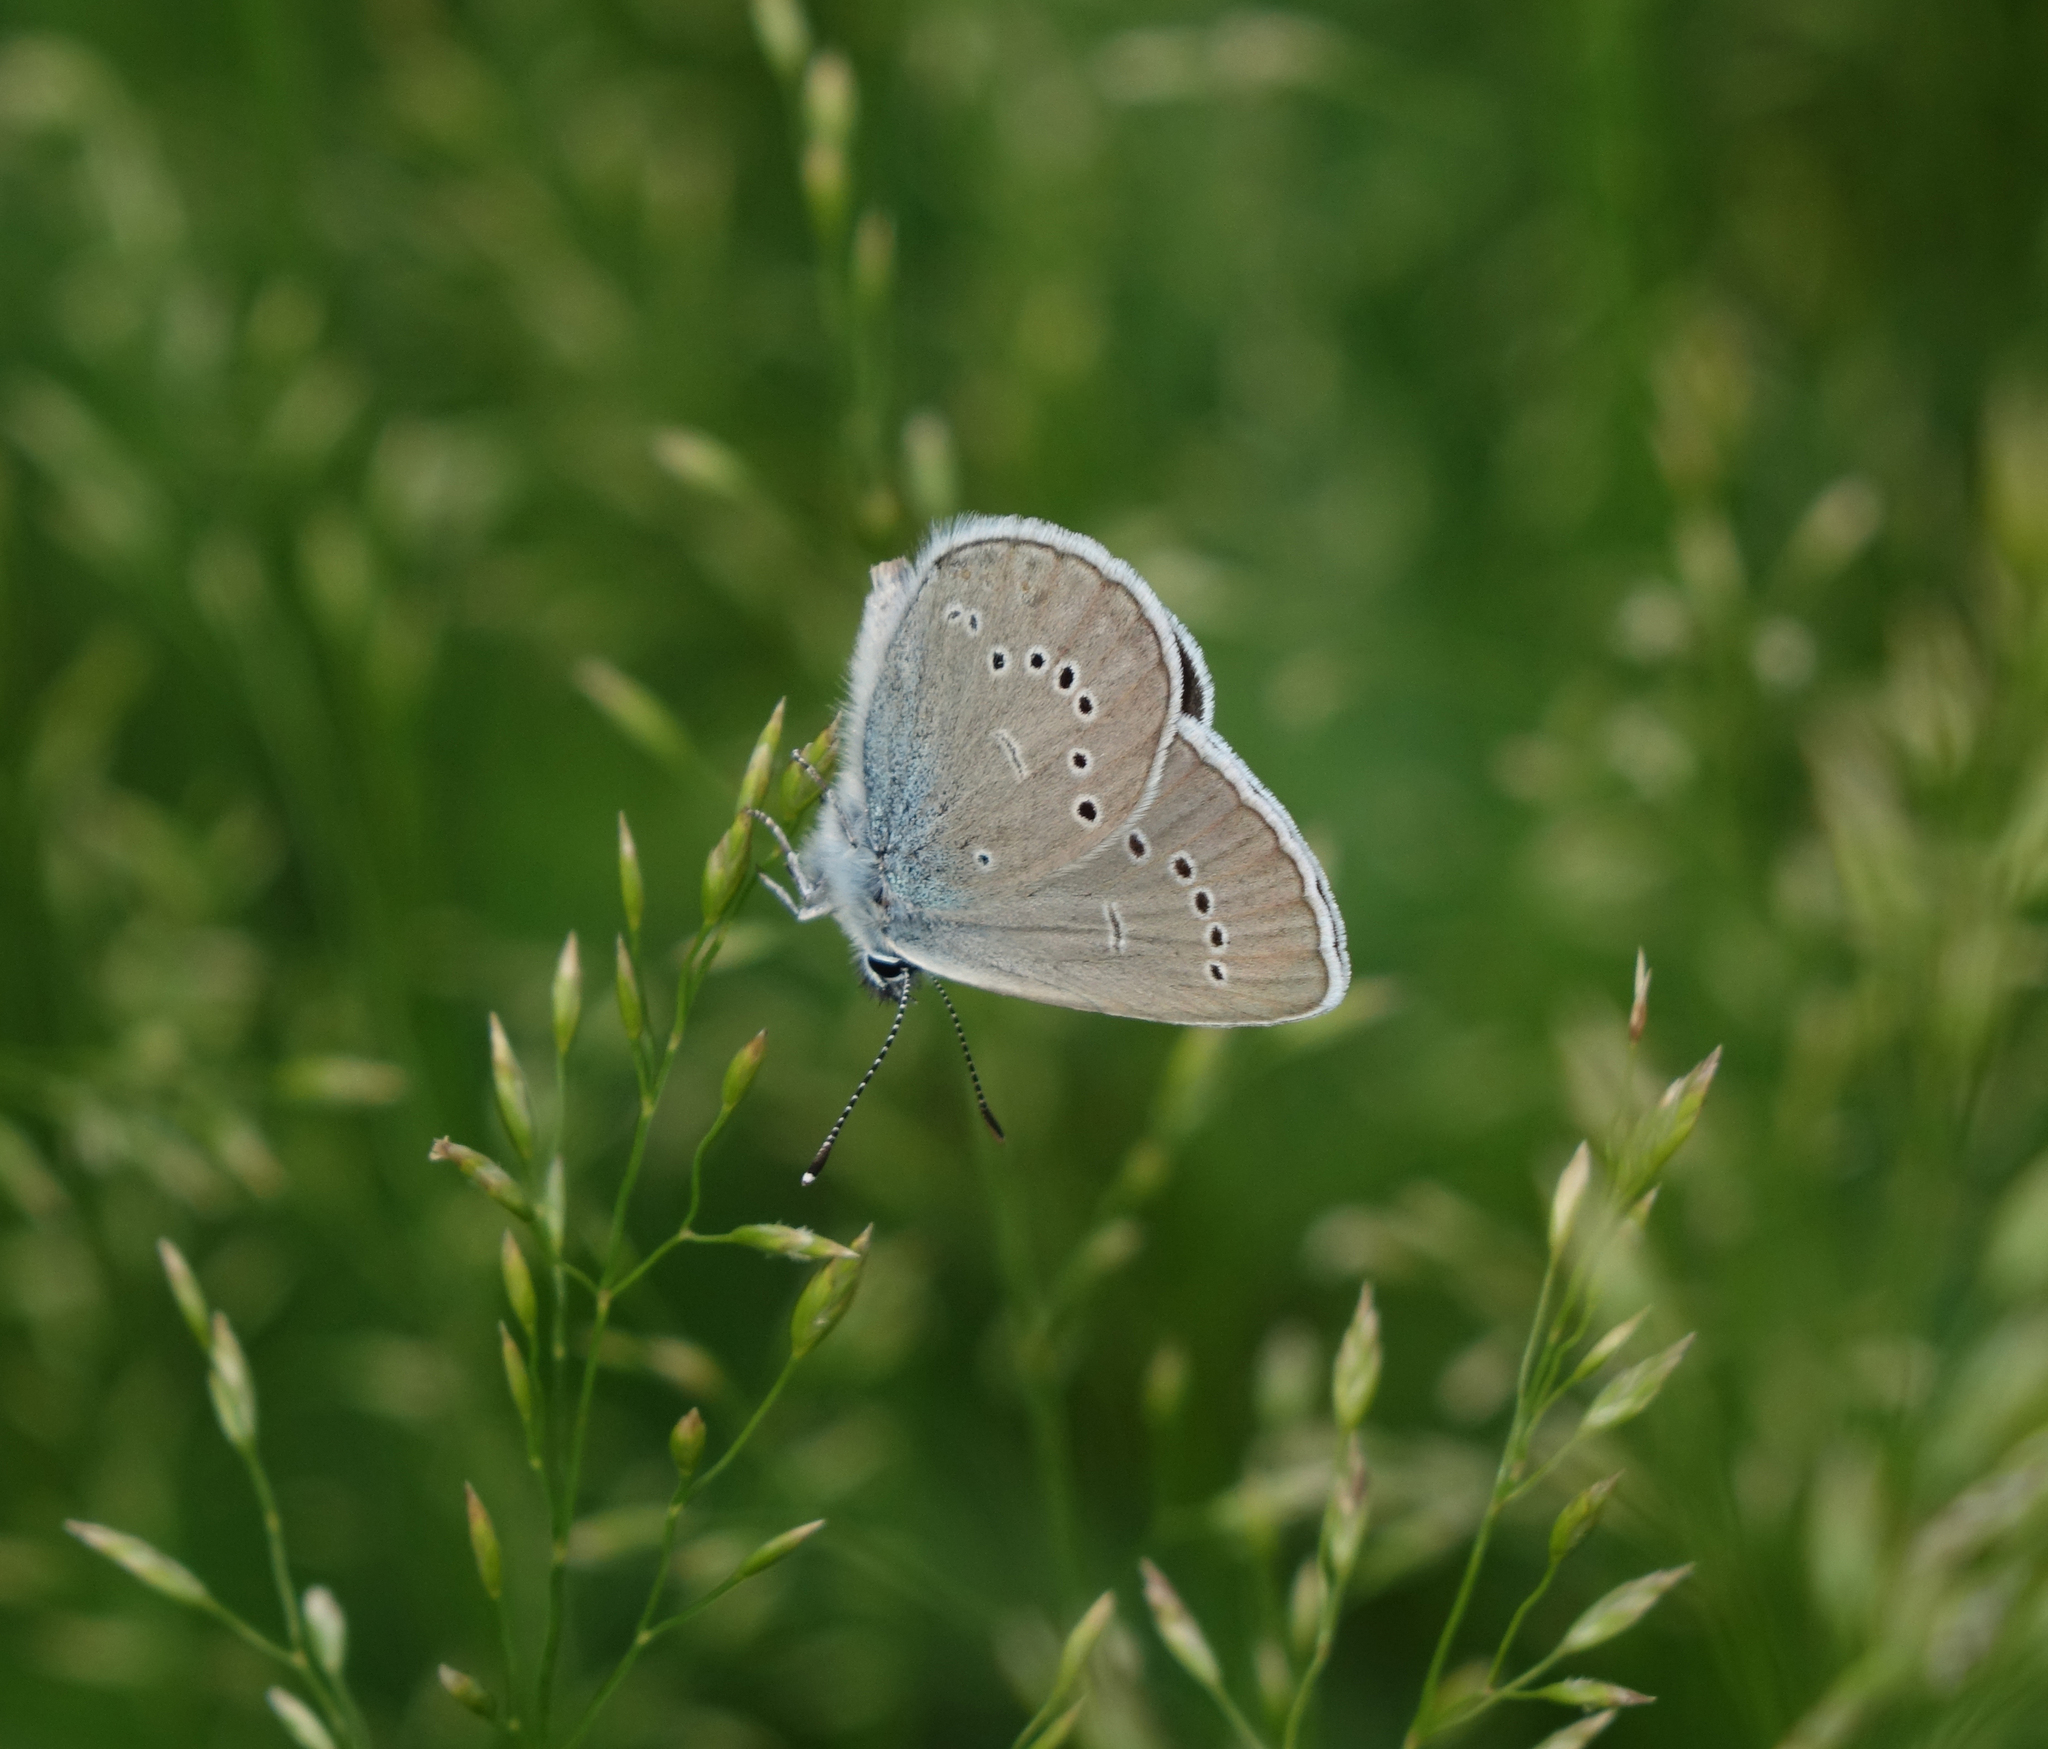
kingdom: Animalia
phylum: Arthropoda
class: Insecta
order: Lepidoptera
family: Lycaenidae
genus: Cyaniris
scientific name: Cyaniris semiargus
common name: Mazarine blue
